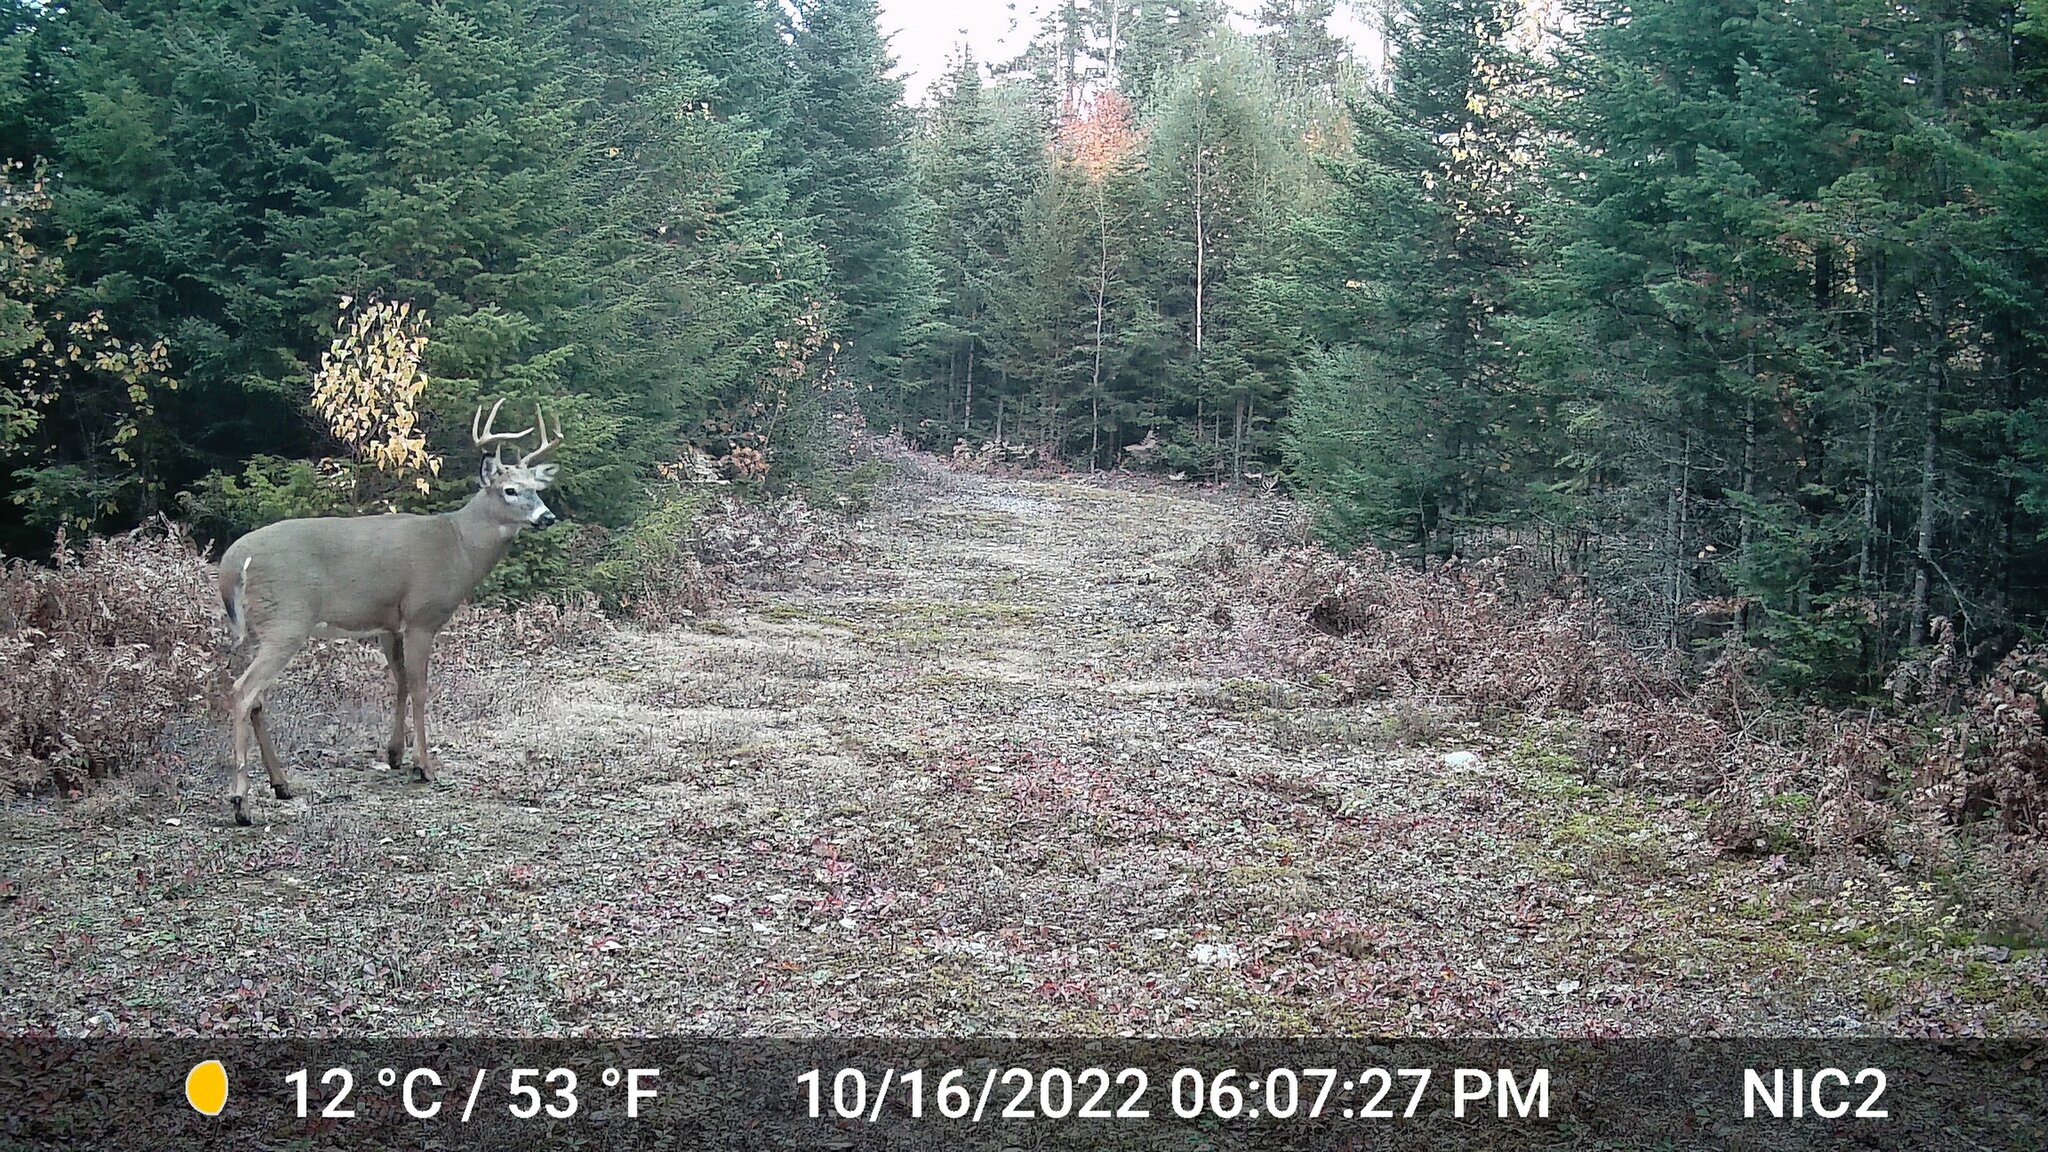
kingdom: Animalia
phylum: Chordata
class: Mammalia
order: Artiodactyla
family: Cervidae
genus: Odocoileus
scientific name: Odocoileus virginianus
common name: White-tailed deer
